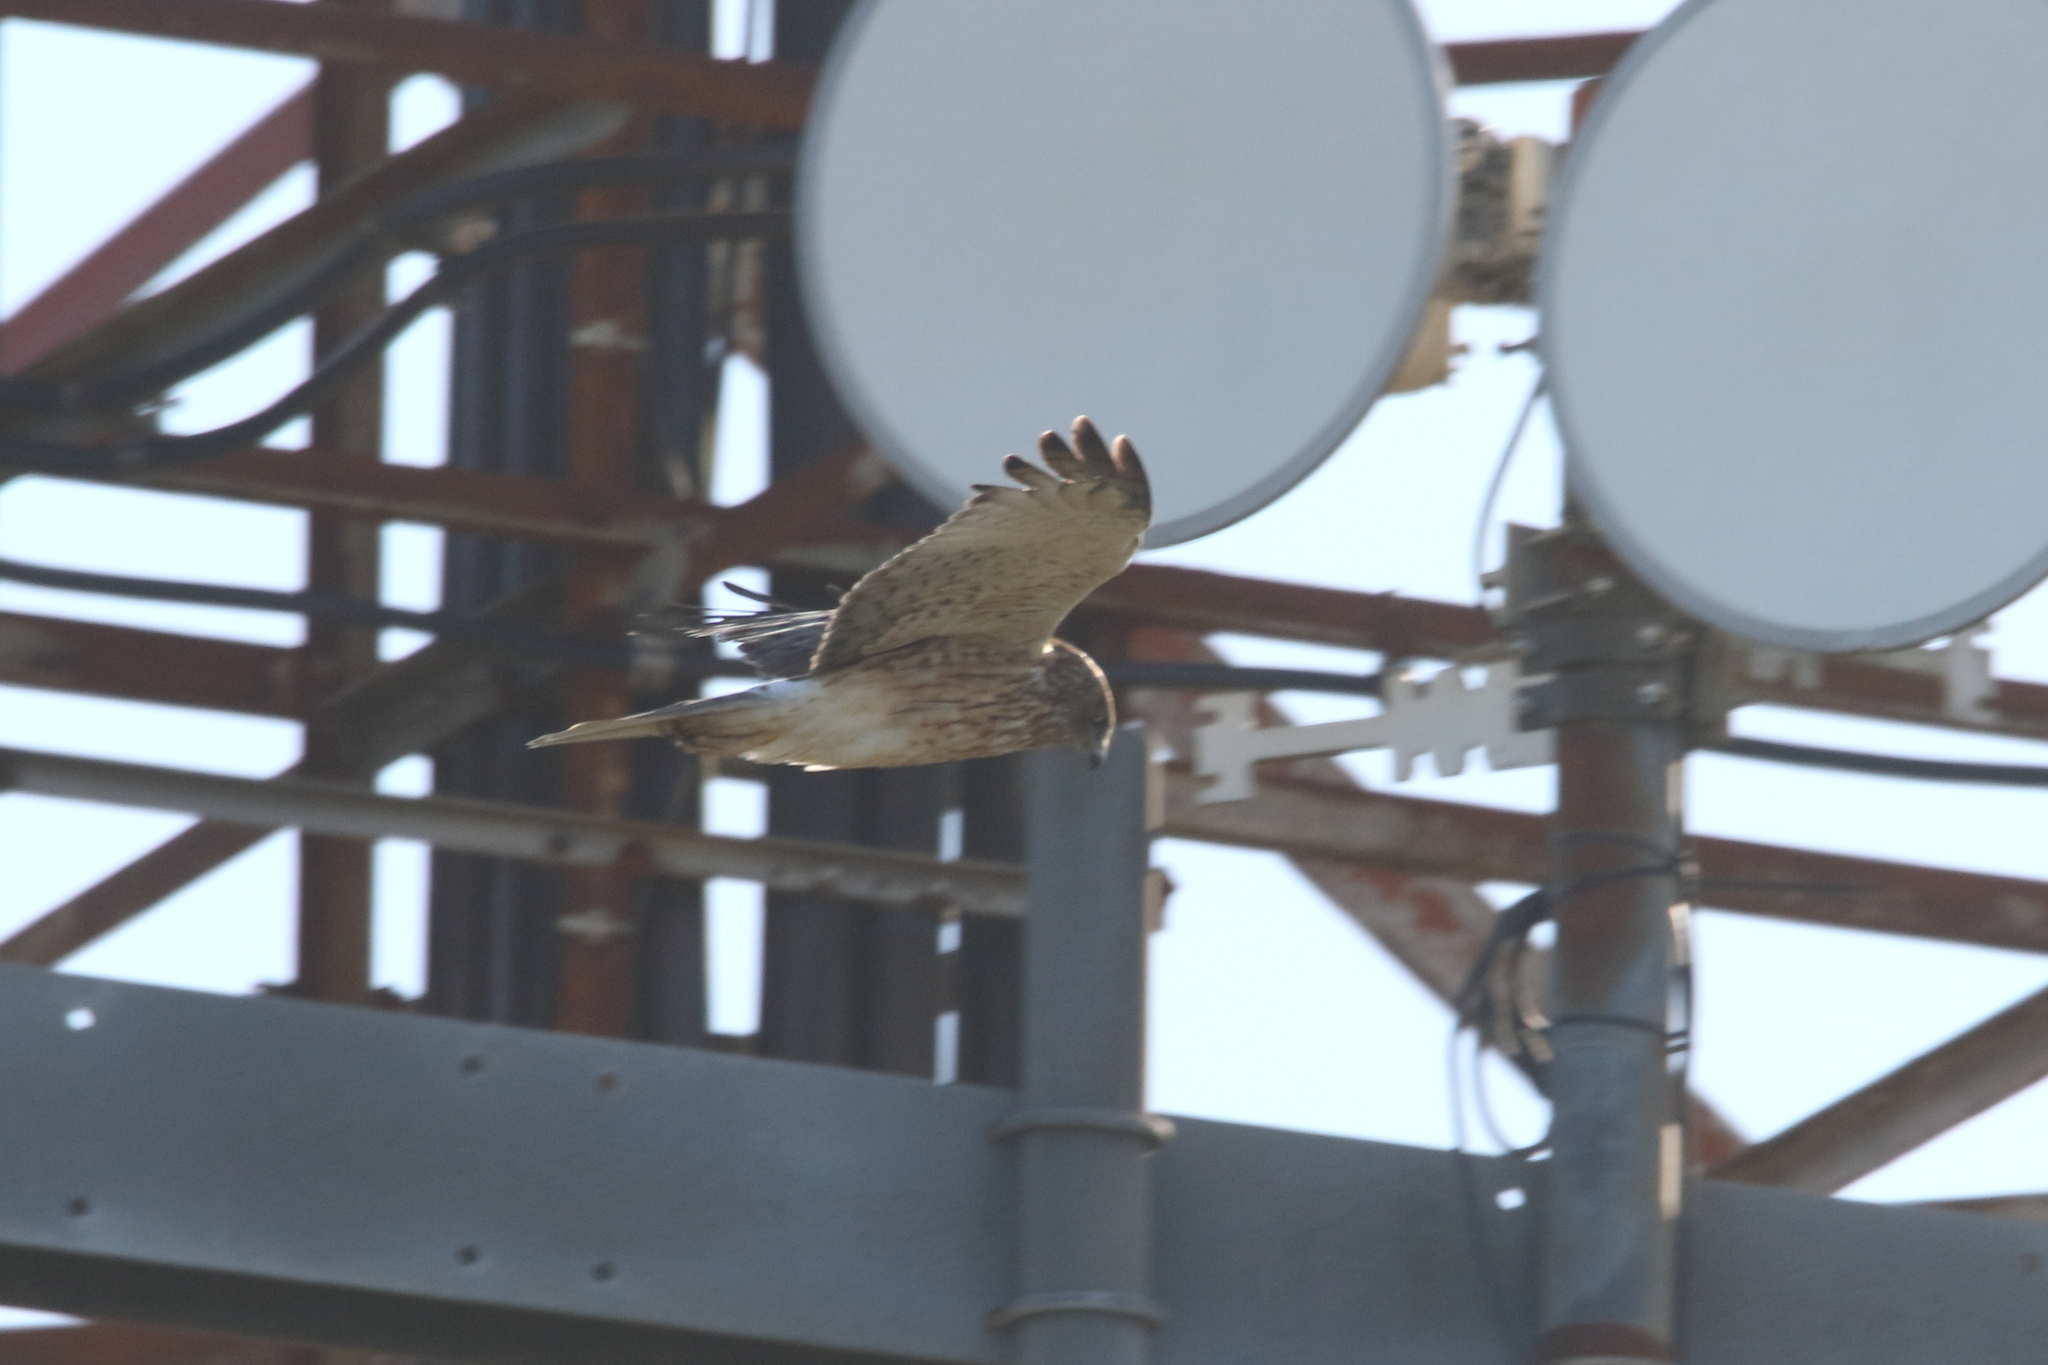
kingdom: Animalia
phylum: Chordata
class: Aves
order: Accipitriformes
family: Accipitridae
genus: Circus
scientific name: Circus approximans
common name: Swamp harrier
